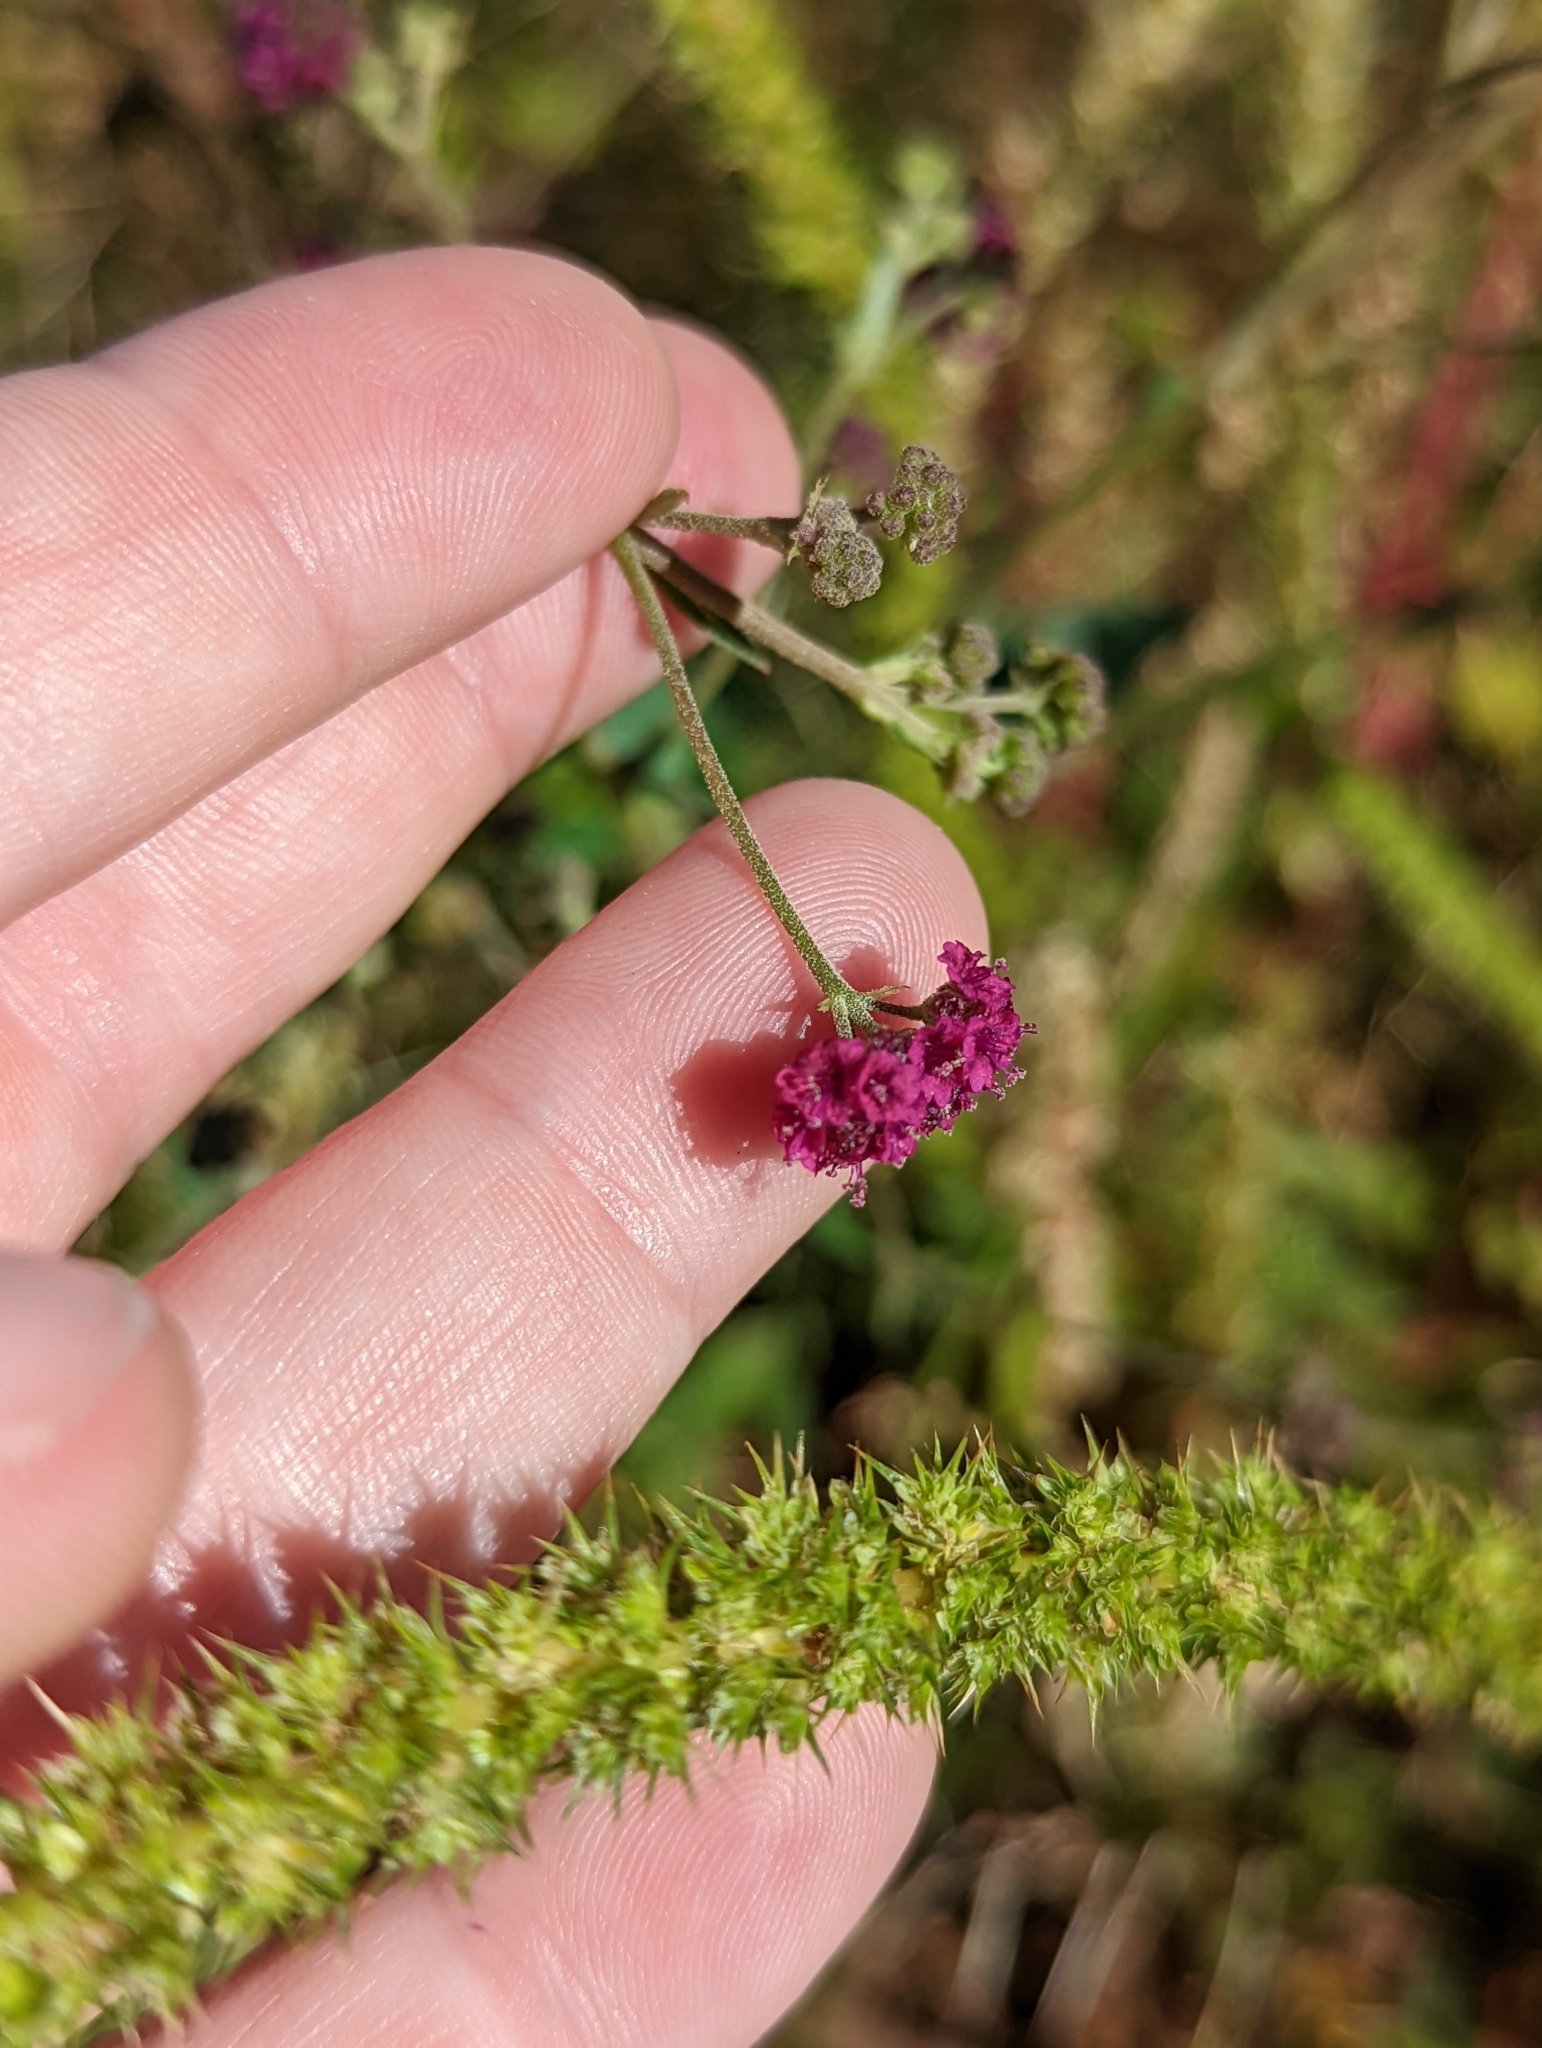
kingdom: Plantae
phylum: Tracheophyta
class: Magnoliopsida
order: Caryophyllales
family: Nyctaginaceae
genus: Boerhavia
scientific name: Boerhavia coccinea
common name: Scarlet spiderling
